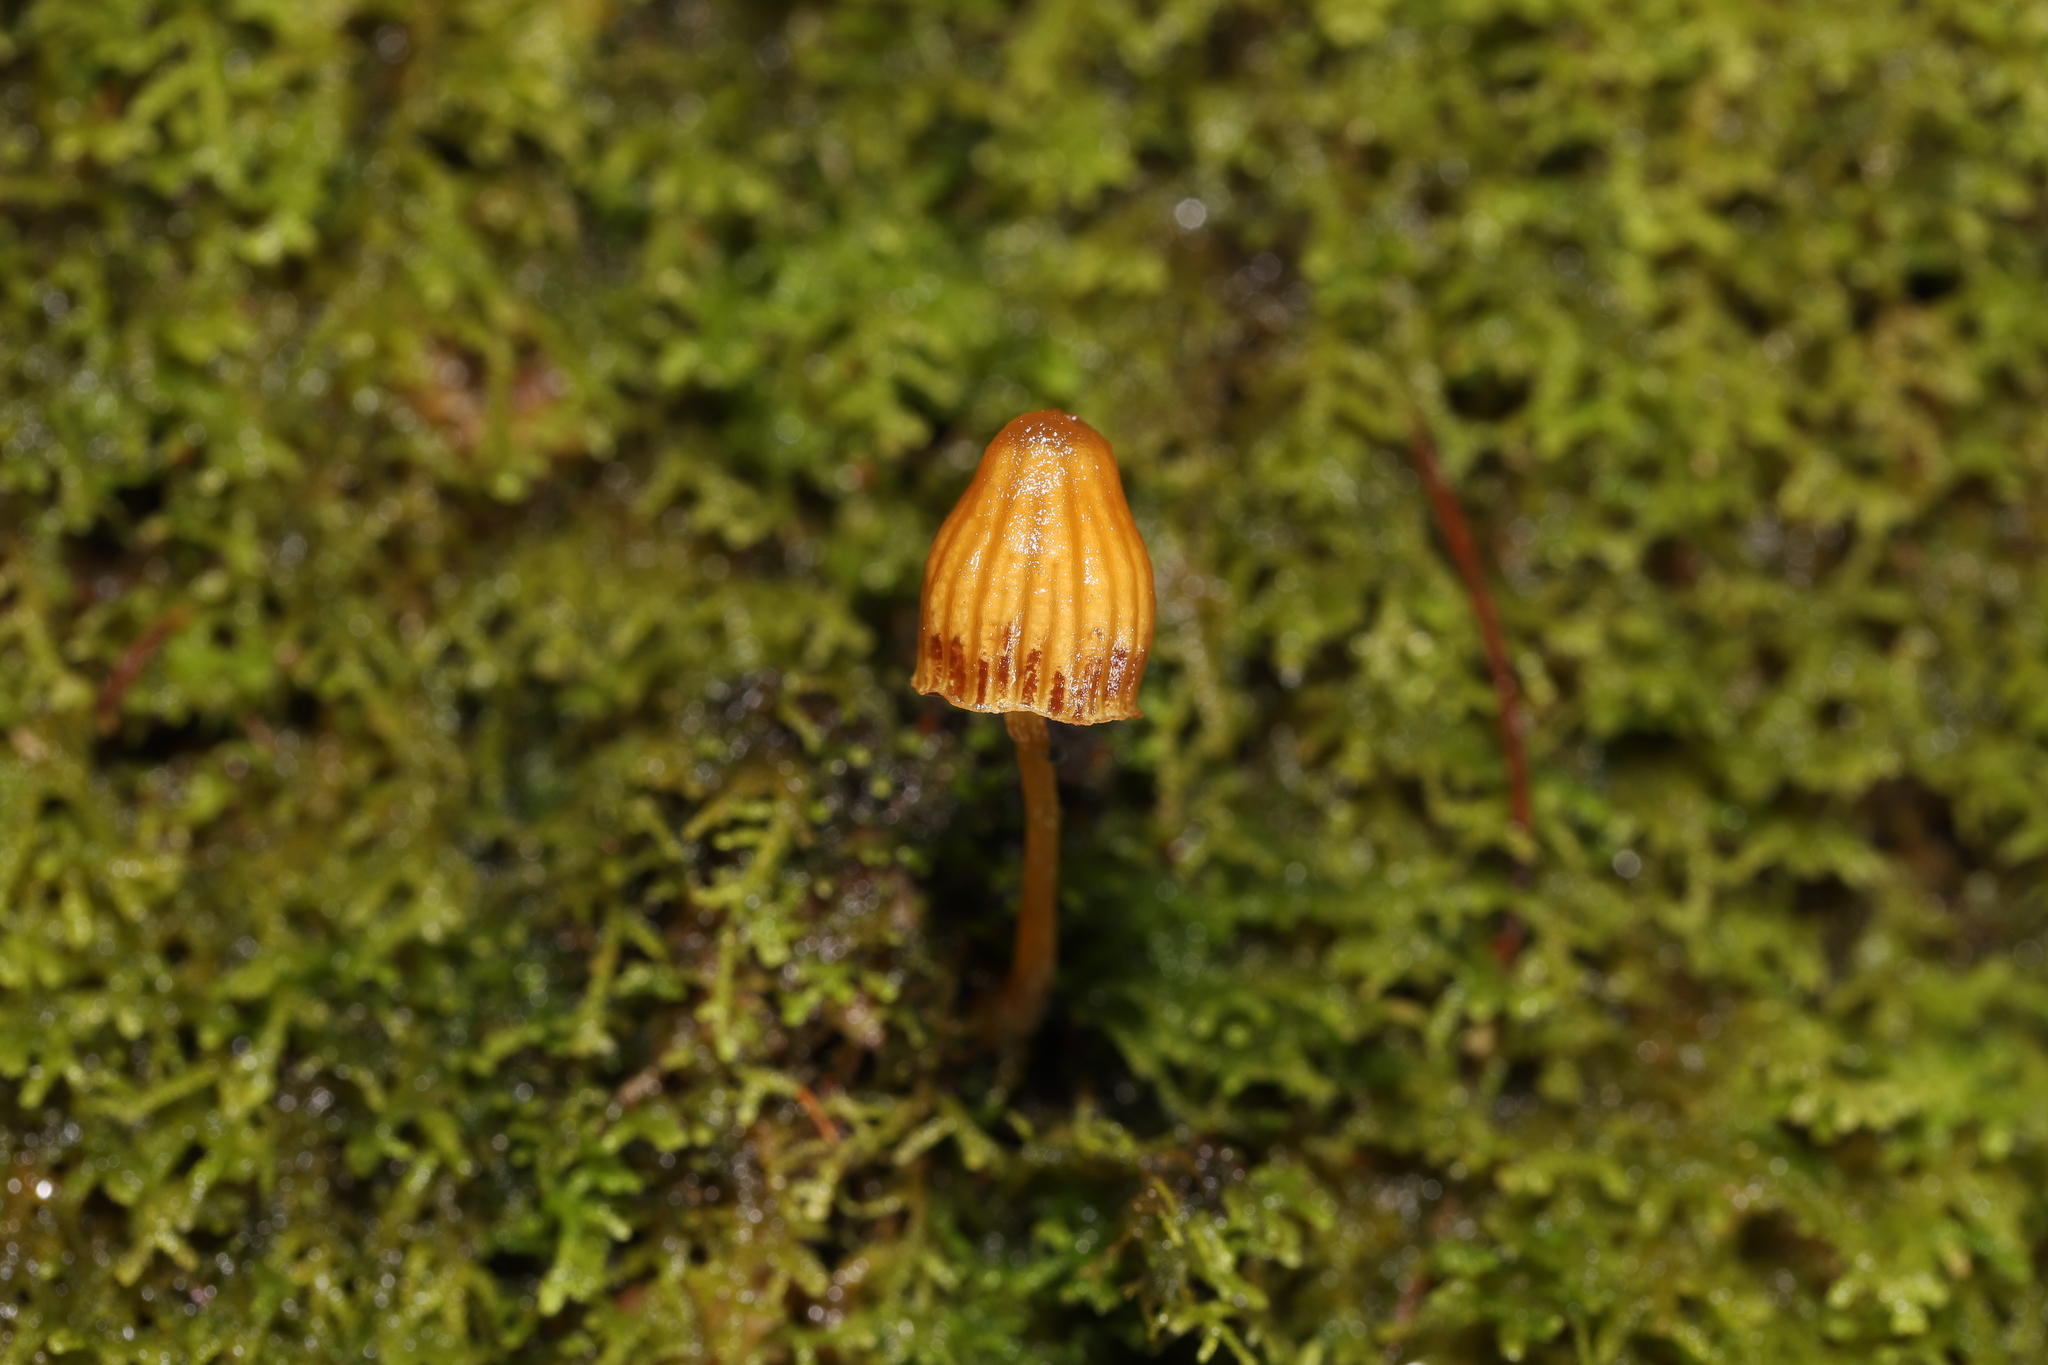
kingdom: Fungi
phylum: Basidiomycota
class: Agaricomycetes
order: Agaricales
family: Hymenogastraceae
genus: Galerina
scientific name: Galerina hypnorum
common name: Moss bell
